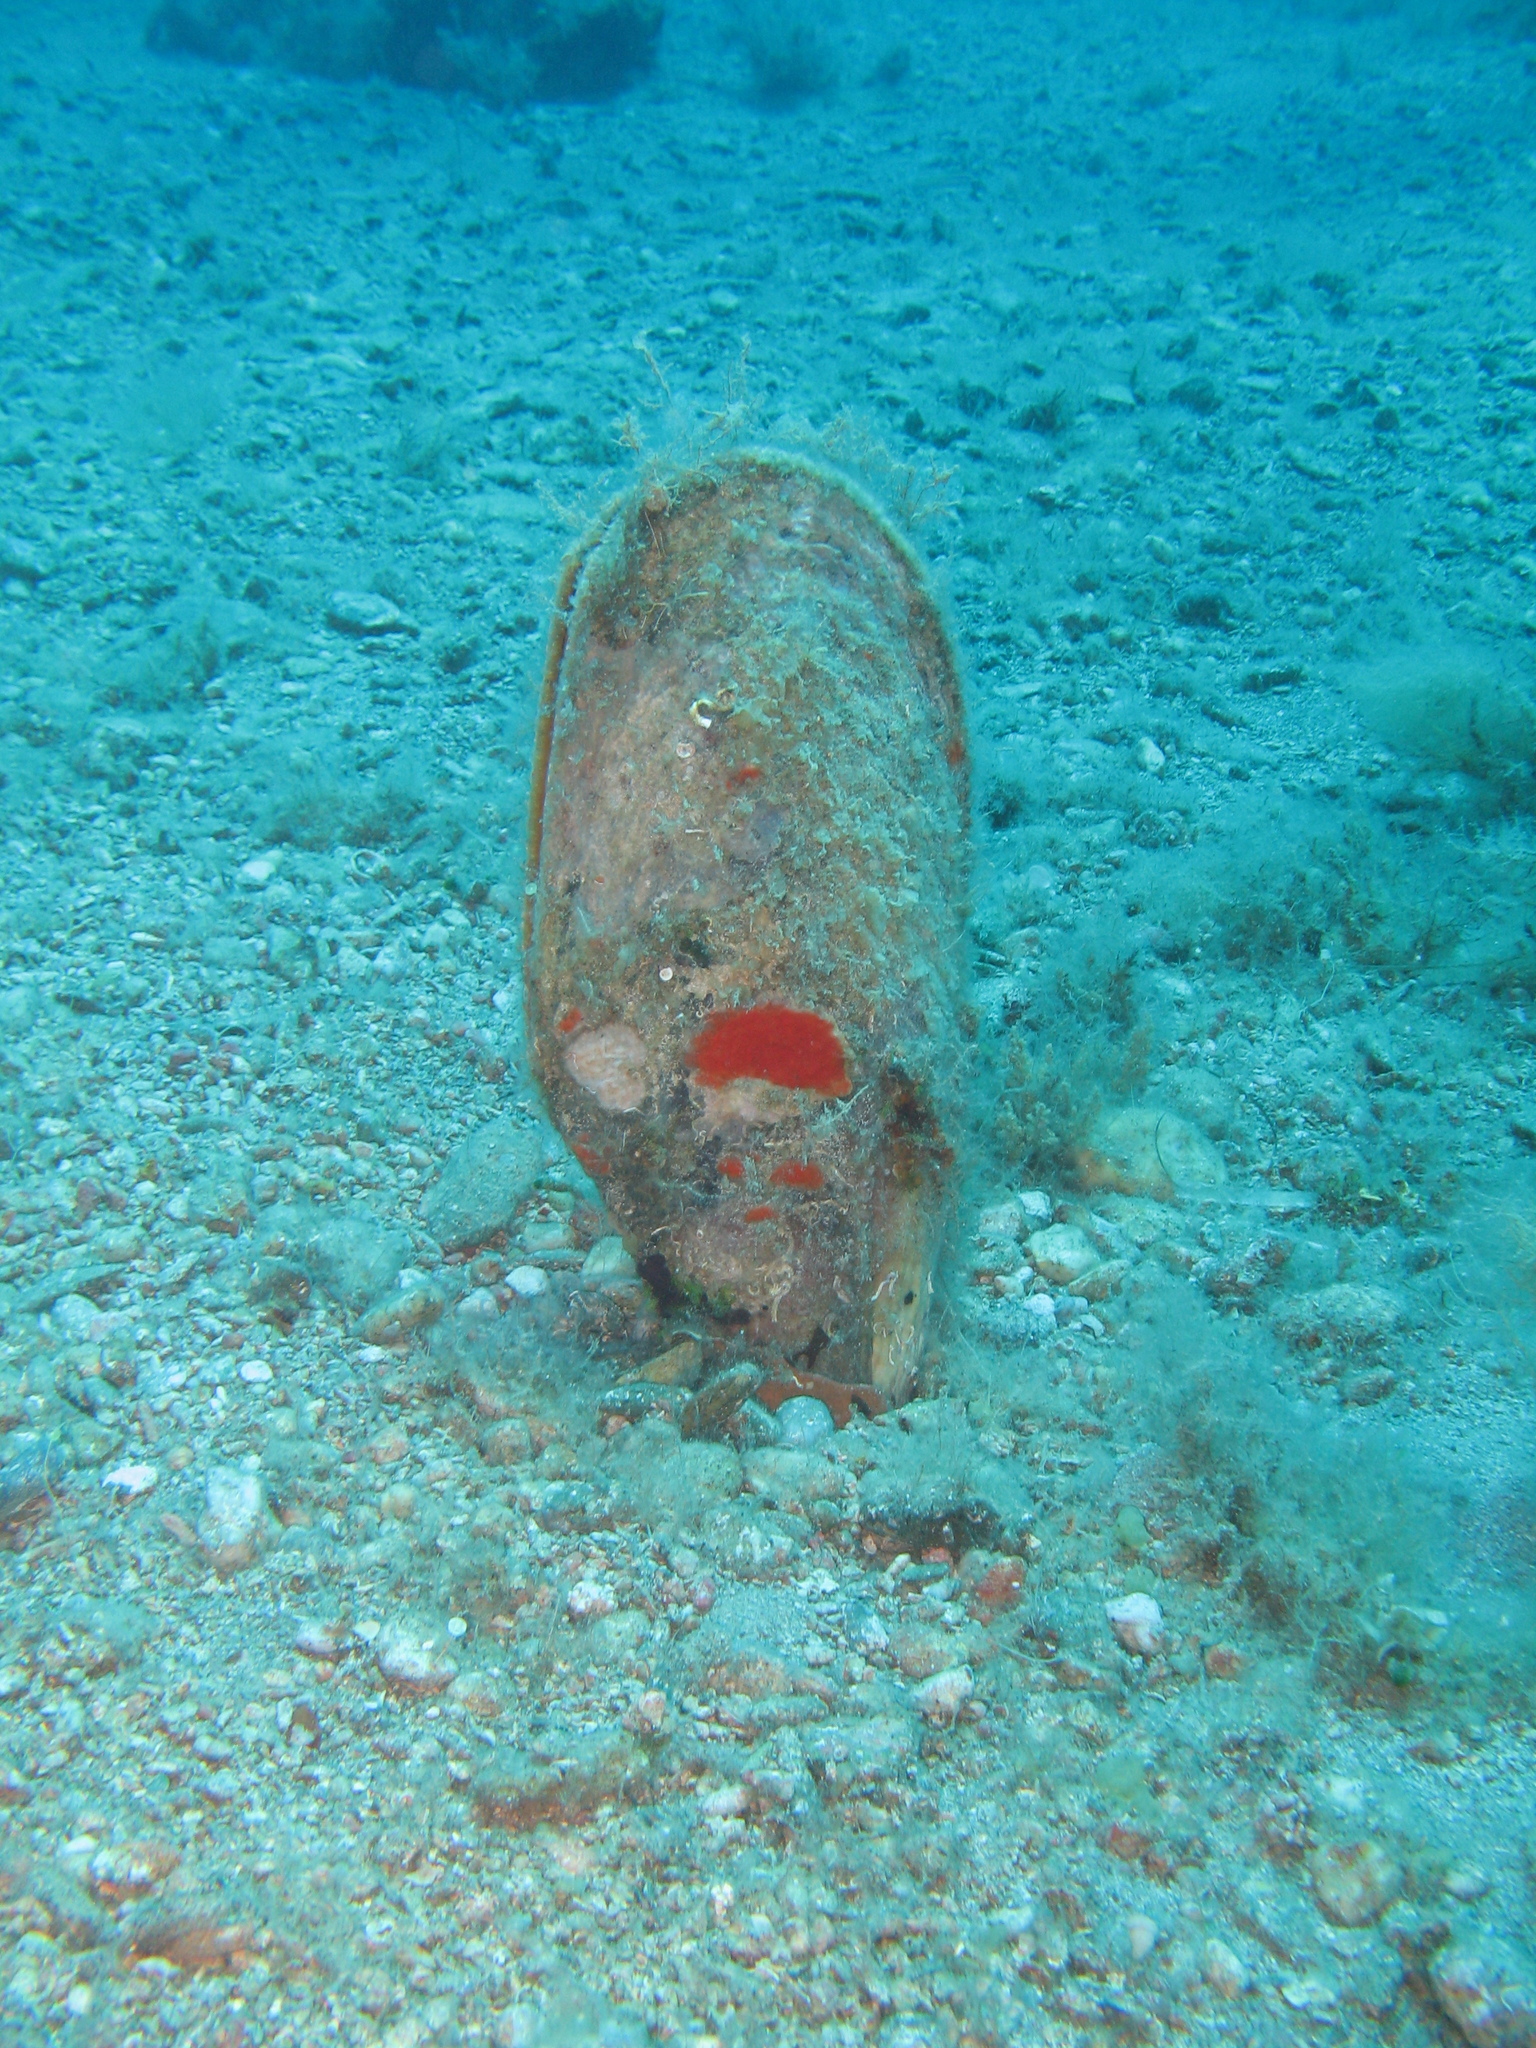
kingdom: Animalia
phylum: Mollusca
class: Bivalvia
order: Ostreida
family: Pinnidae
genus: Pinna
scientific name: Pinna nobilis
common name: Fan mussel
